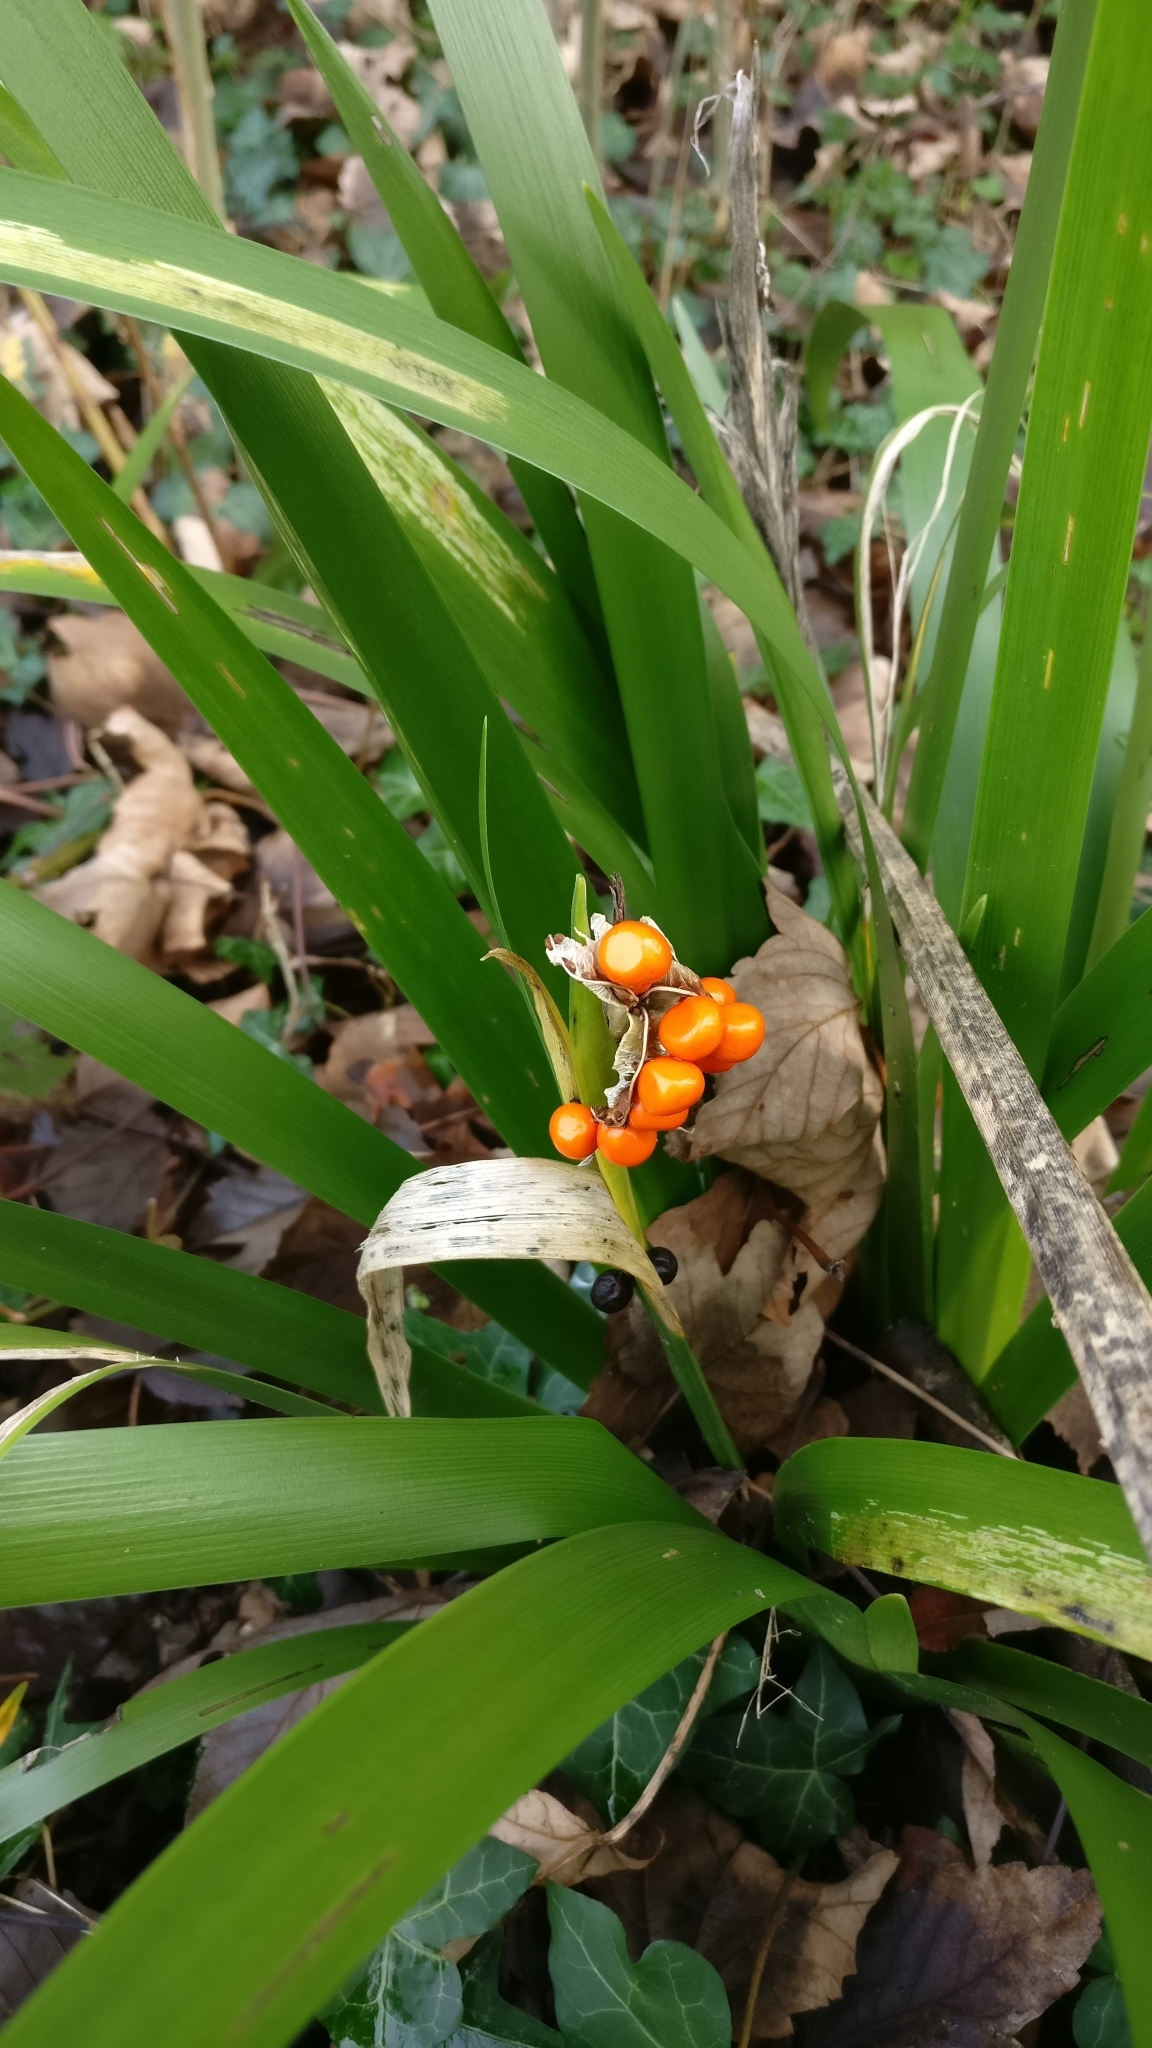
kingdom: Plantae
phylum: Tracheophyta
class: Liliopsida
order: Asparagales
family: Iridaceae
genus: Iris
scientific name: Iris foetidissima
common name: Stinking iris
